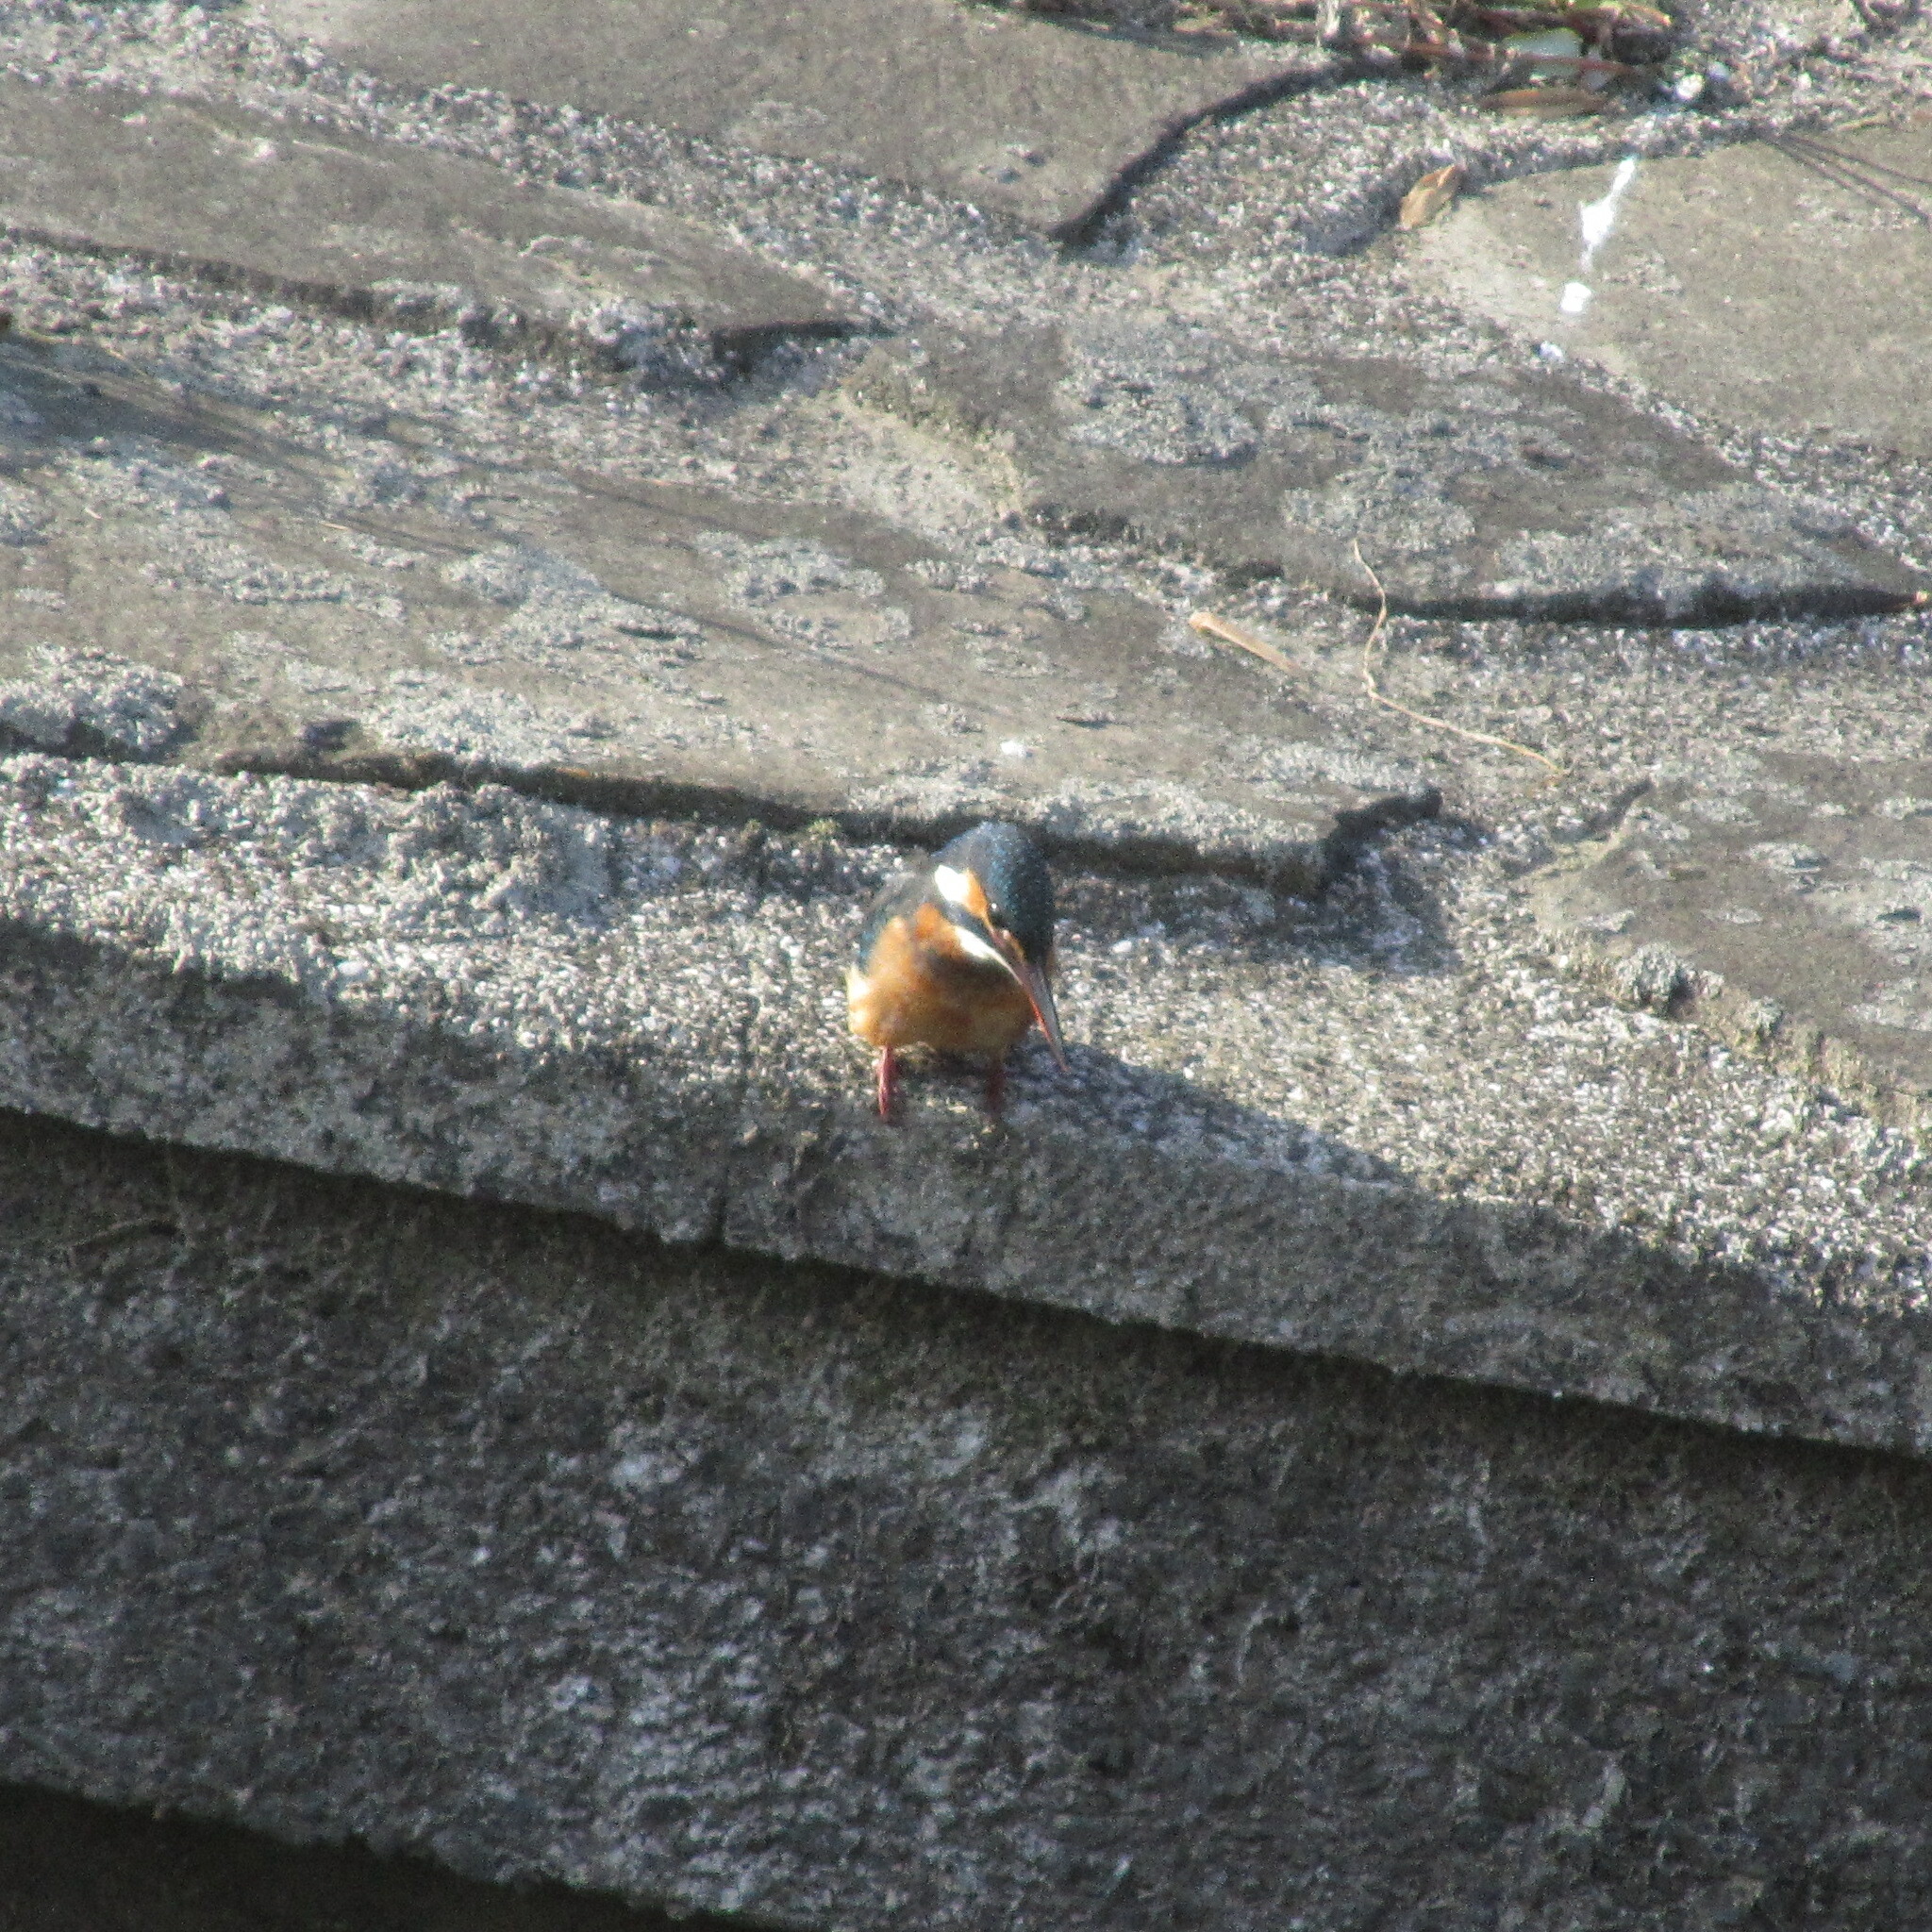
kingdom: Animalia
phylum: Chordata
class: Aves
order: Coraciiformes
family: Alcedinidae
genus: Alcedo
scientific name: Alcedo atthis
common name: Common kingfisher
